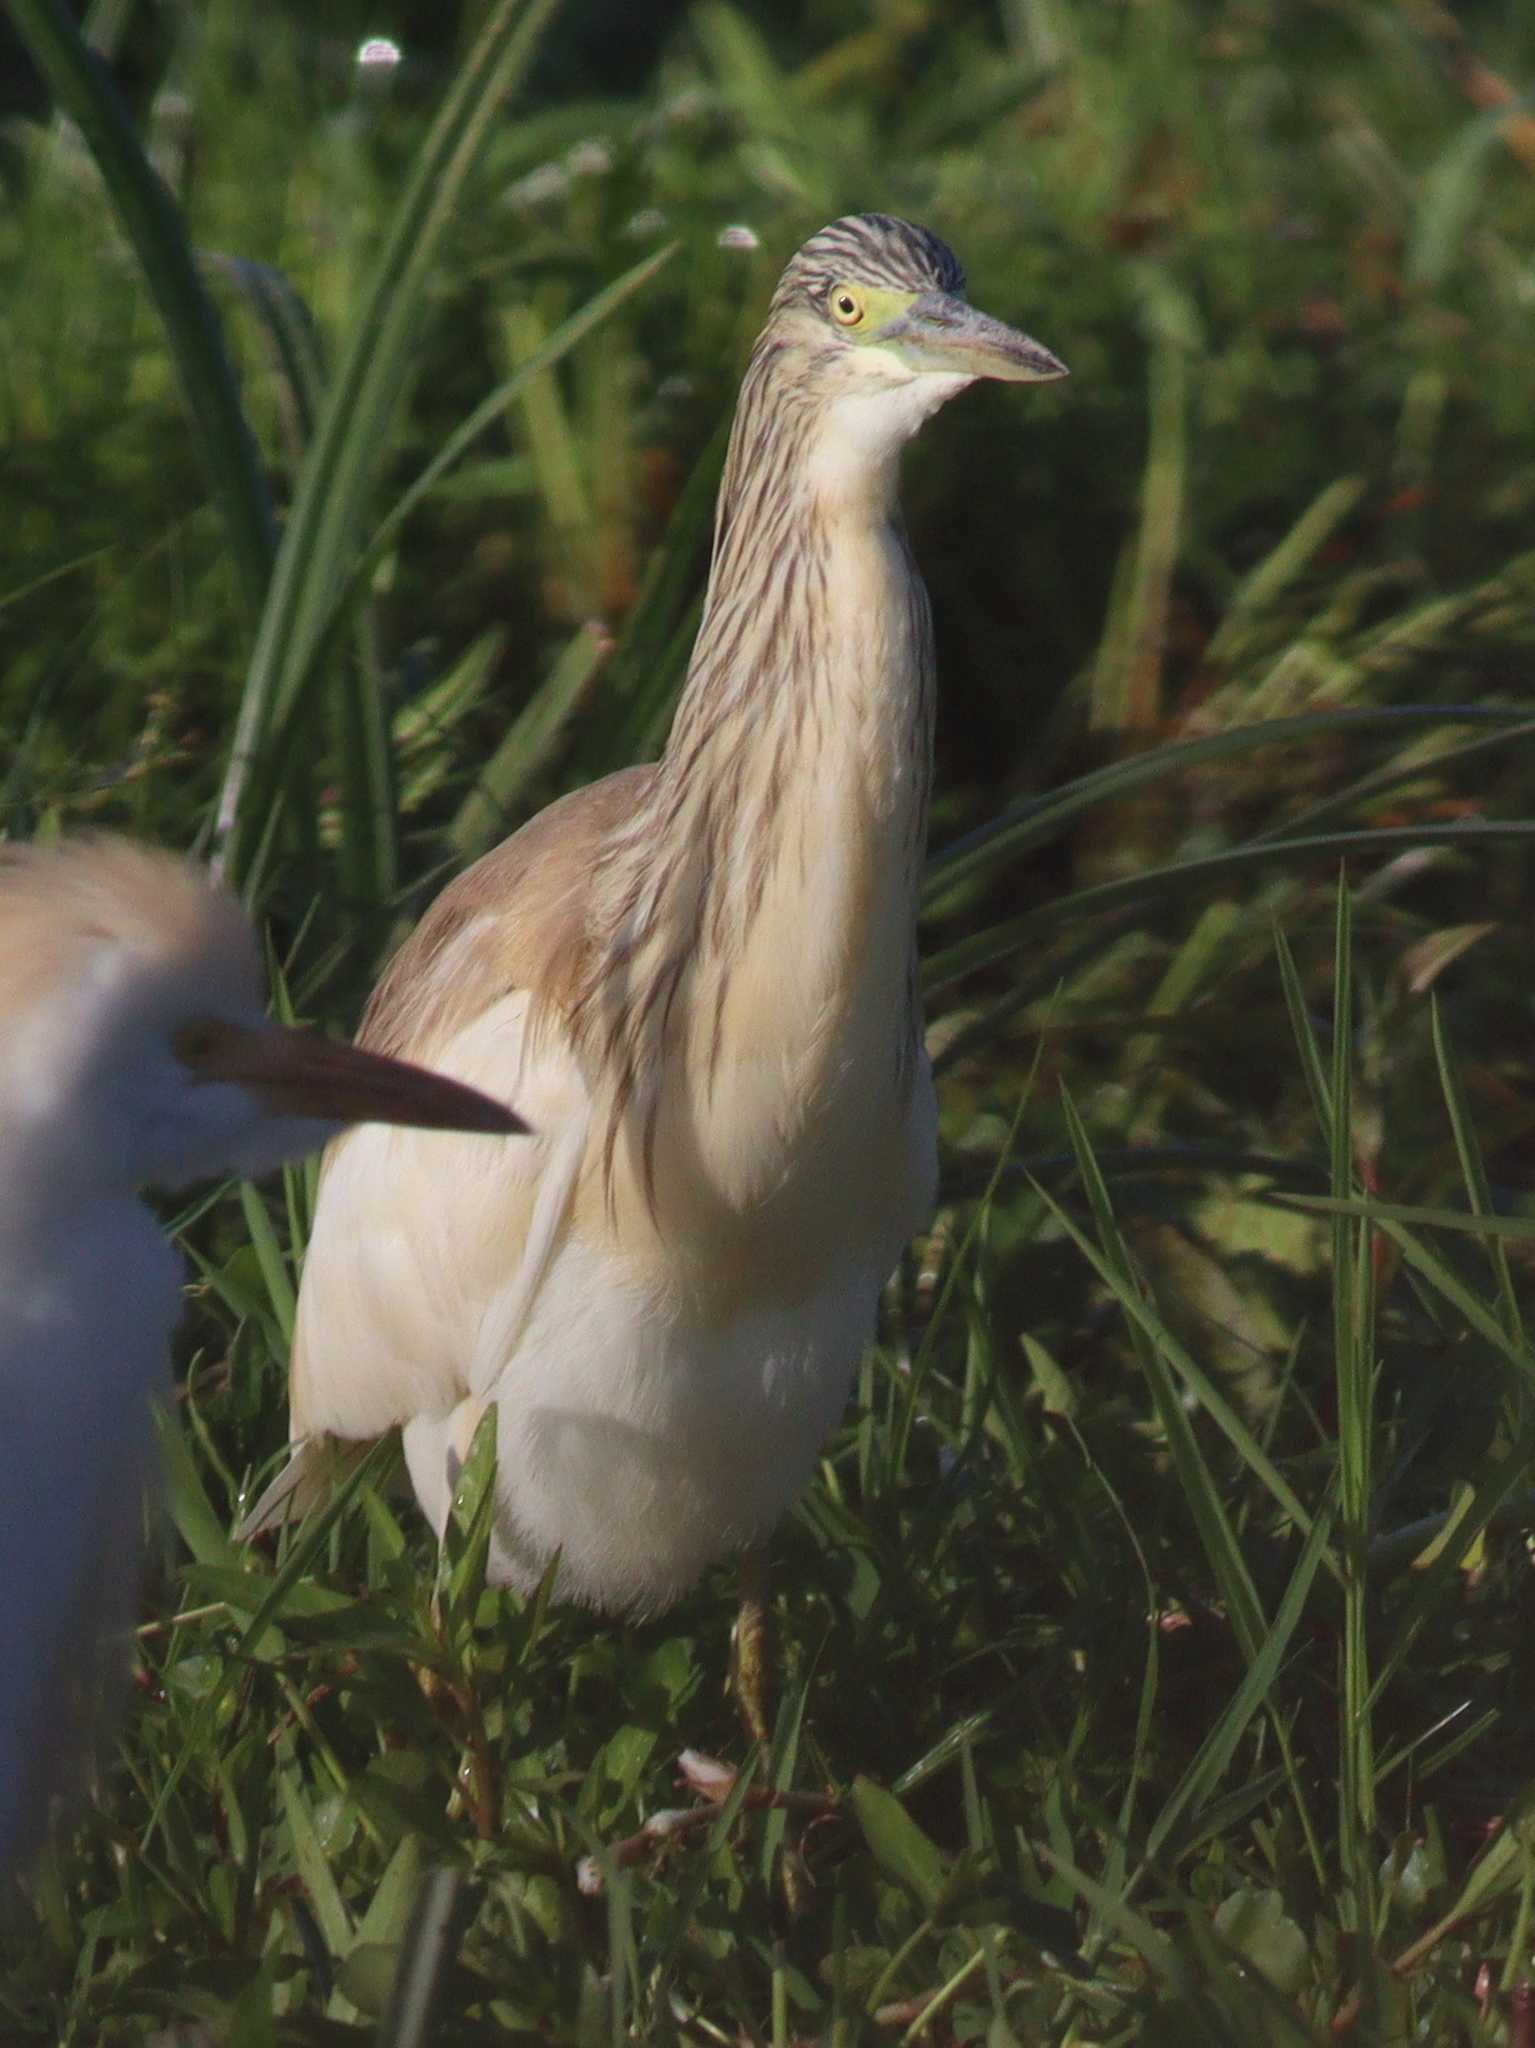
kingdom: Animalia
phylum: Chordata
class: Aves
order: Pelecaniformes
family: Ardeidae
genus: Ardeola
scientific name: Ardeola ralloides
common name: Squacco heron
